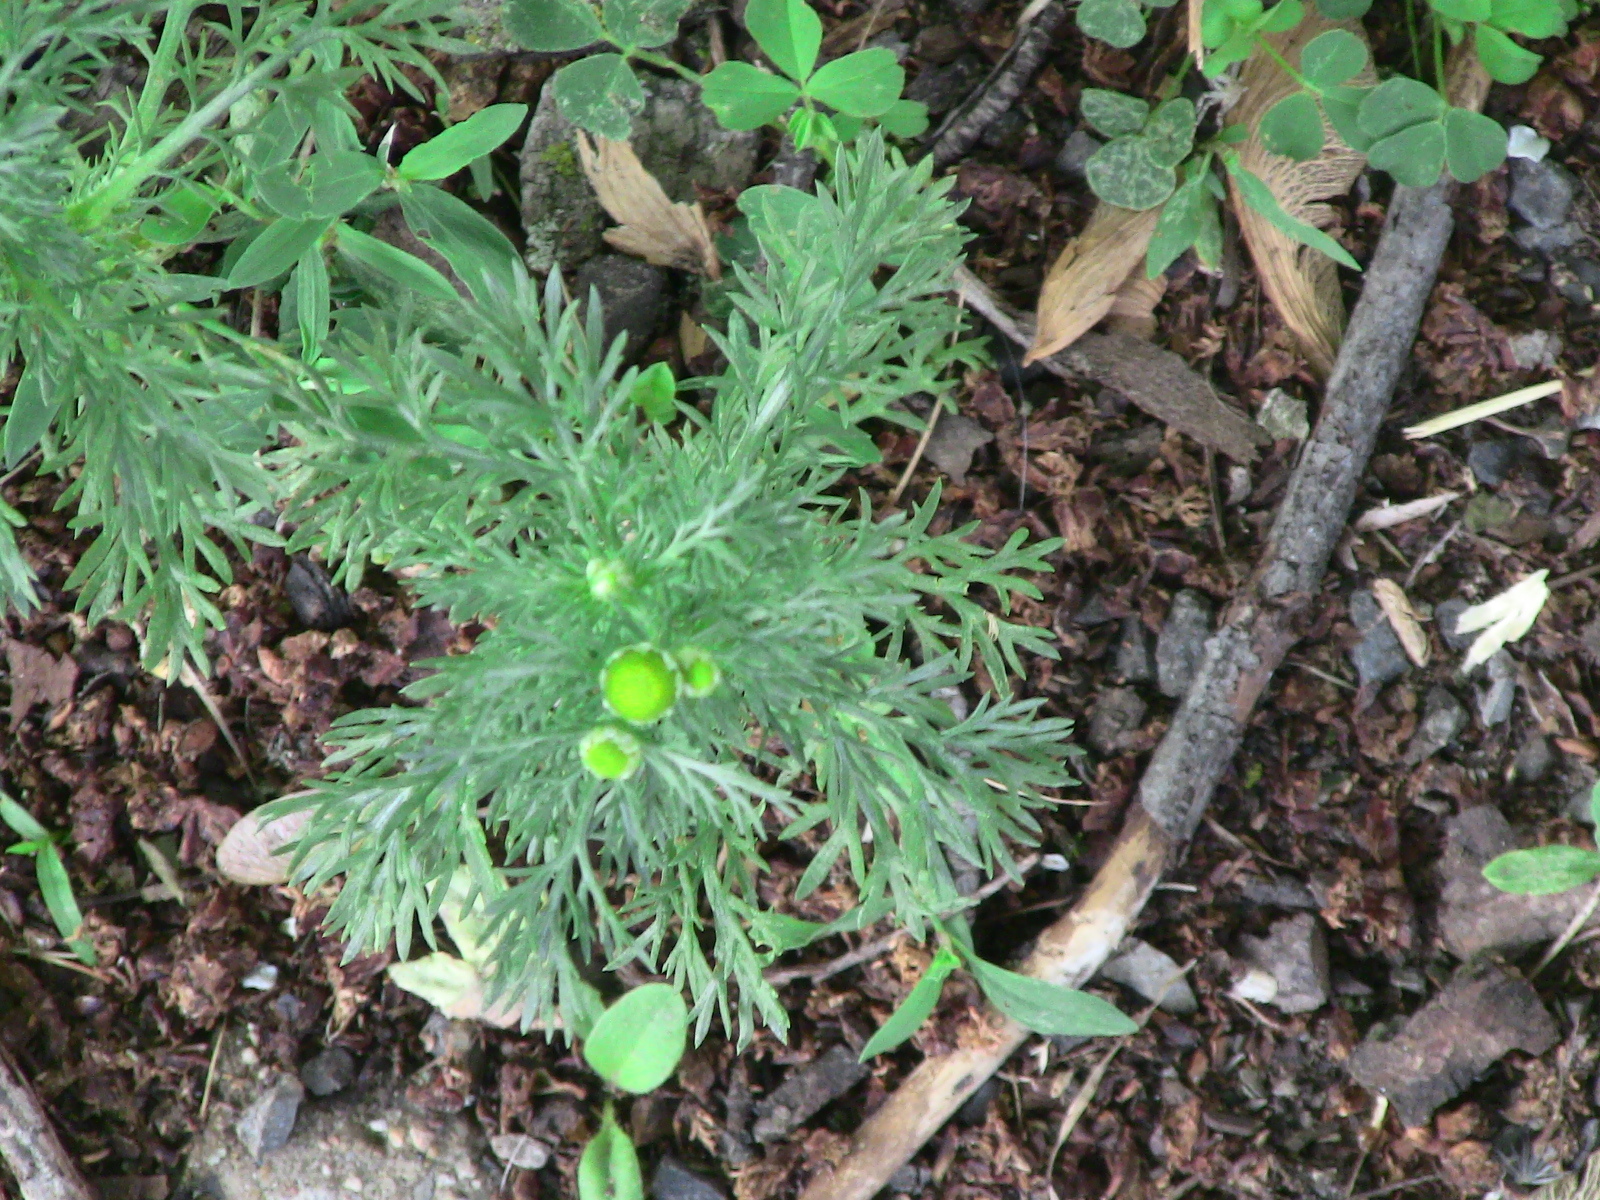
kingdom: Plantae
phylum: Tracheophyta
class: Magnoliopsida
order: Asterales
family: Asteraceae
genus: Matricaria
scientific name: Matricaria discoidea
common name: Disc mayweed
